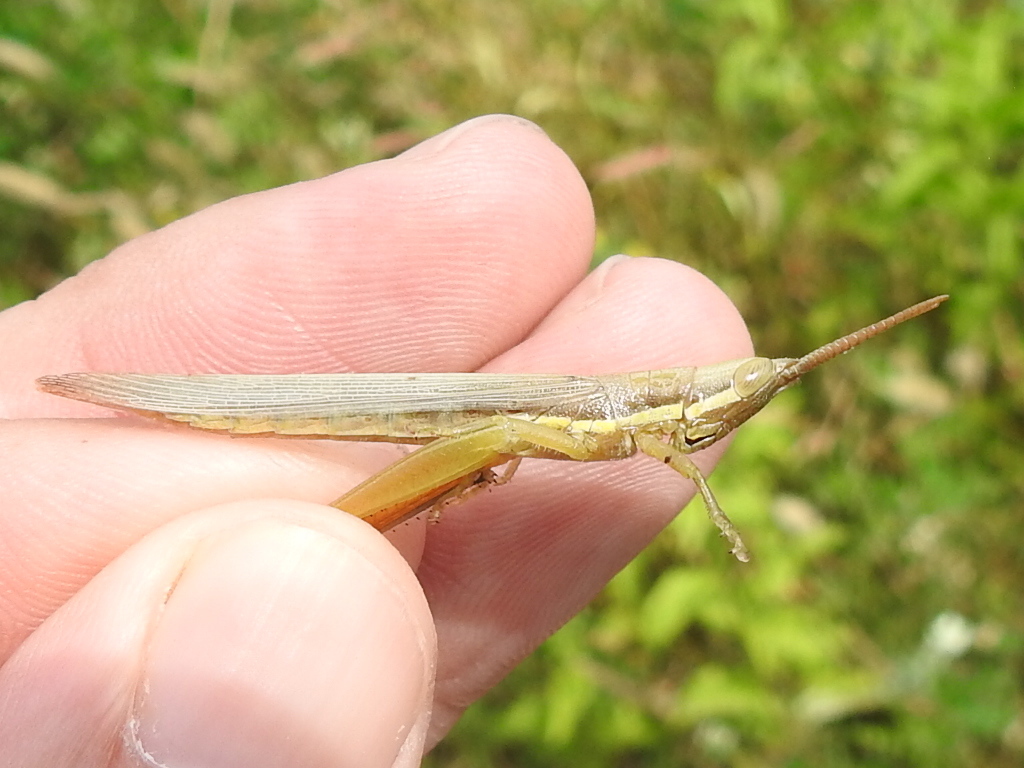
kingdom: Animalia
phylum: Arthropoda
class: Insecta
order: Orthoptera
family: Acrididae
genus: Leptysma
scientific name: Leptysma marginicollis
